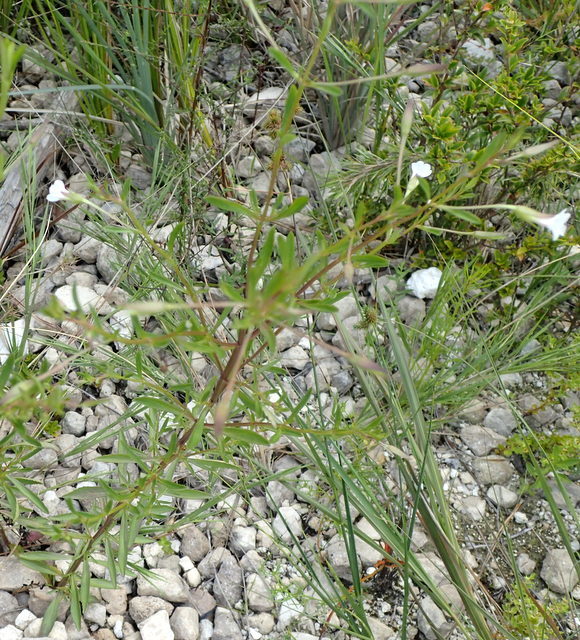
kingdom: Plantae
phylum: Tracheophyta
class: Magnoliopsida
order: Lamiales
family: Plantaginaceae
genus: Mecardonia
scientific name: Mecardonia acuminata
